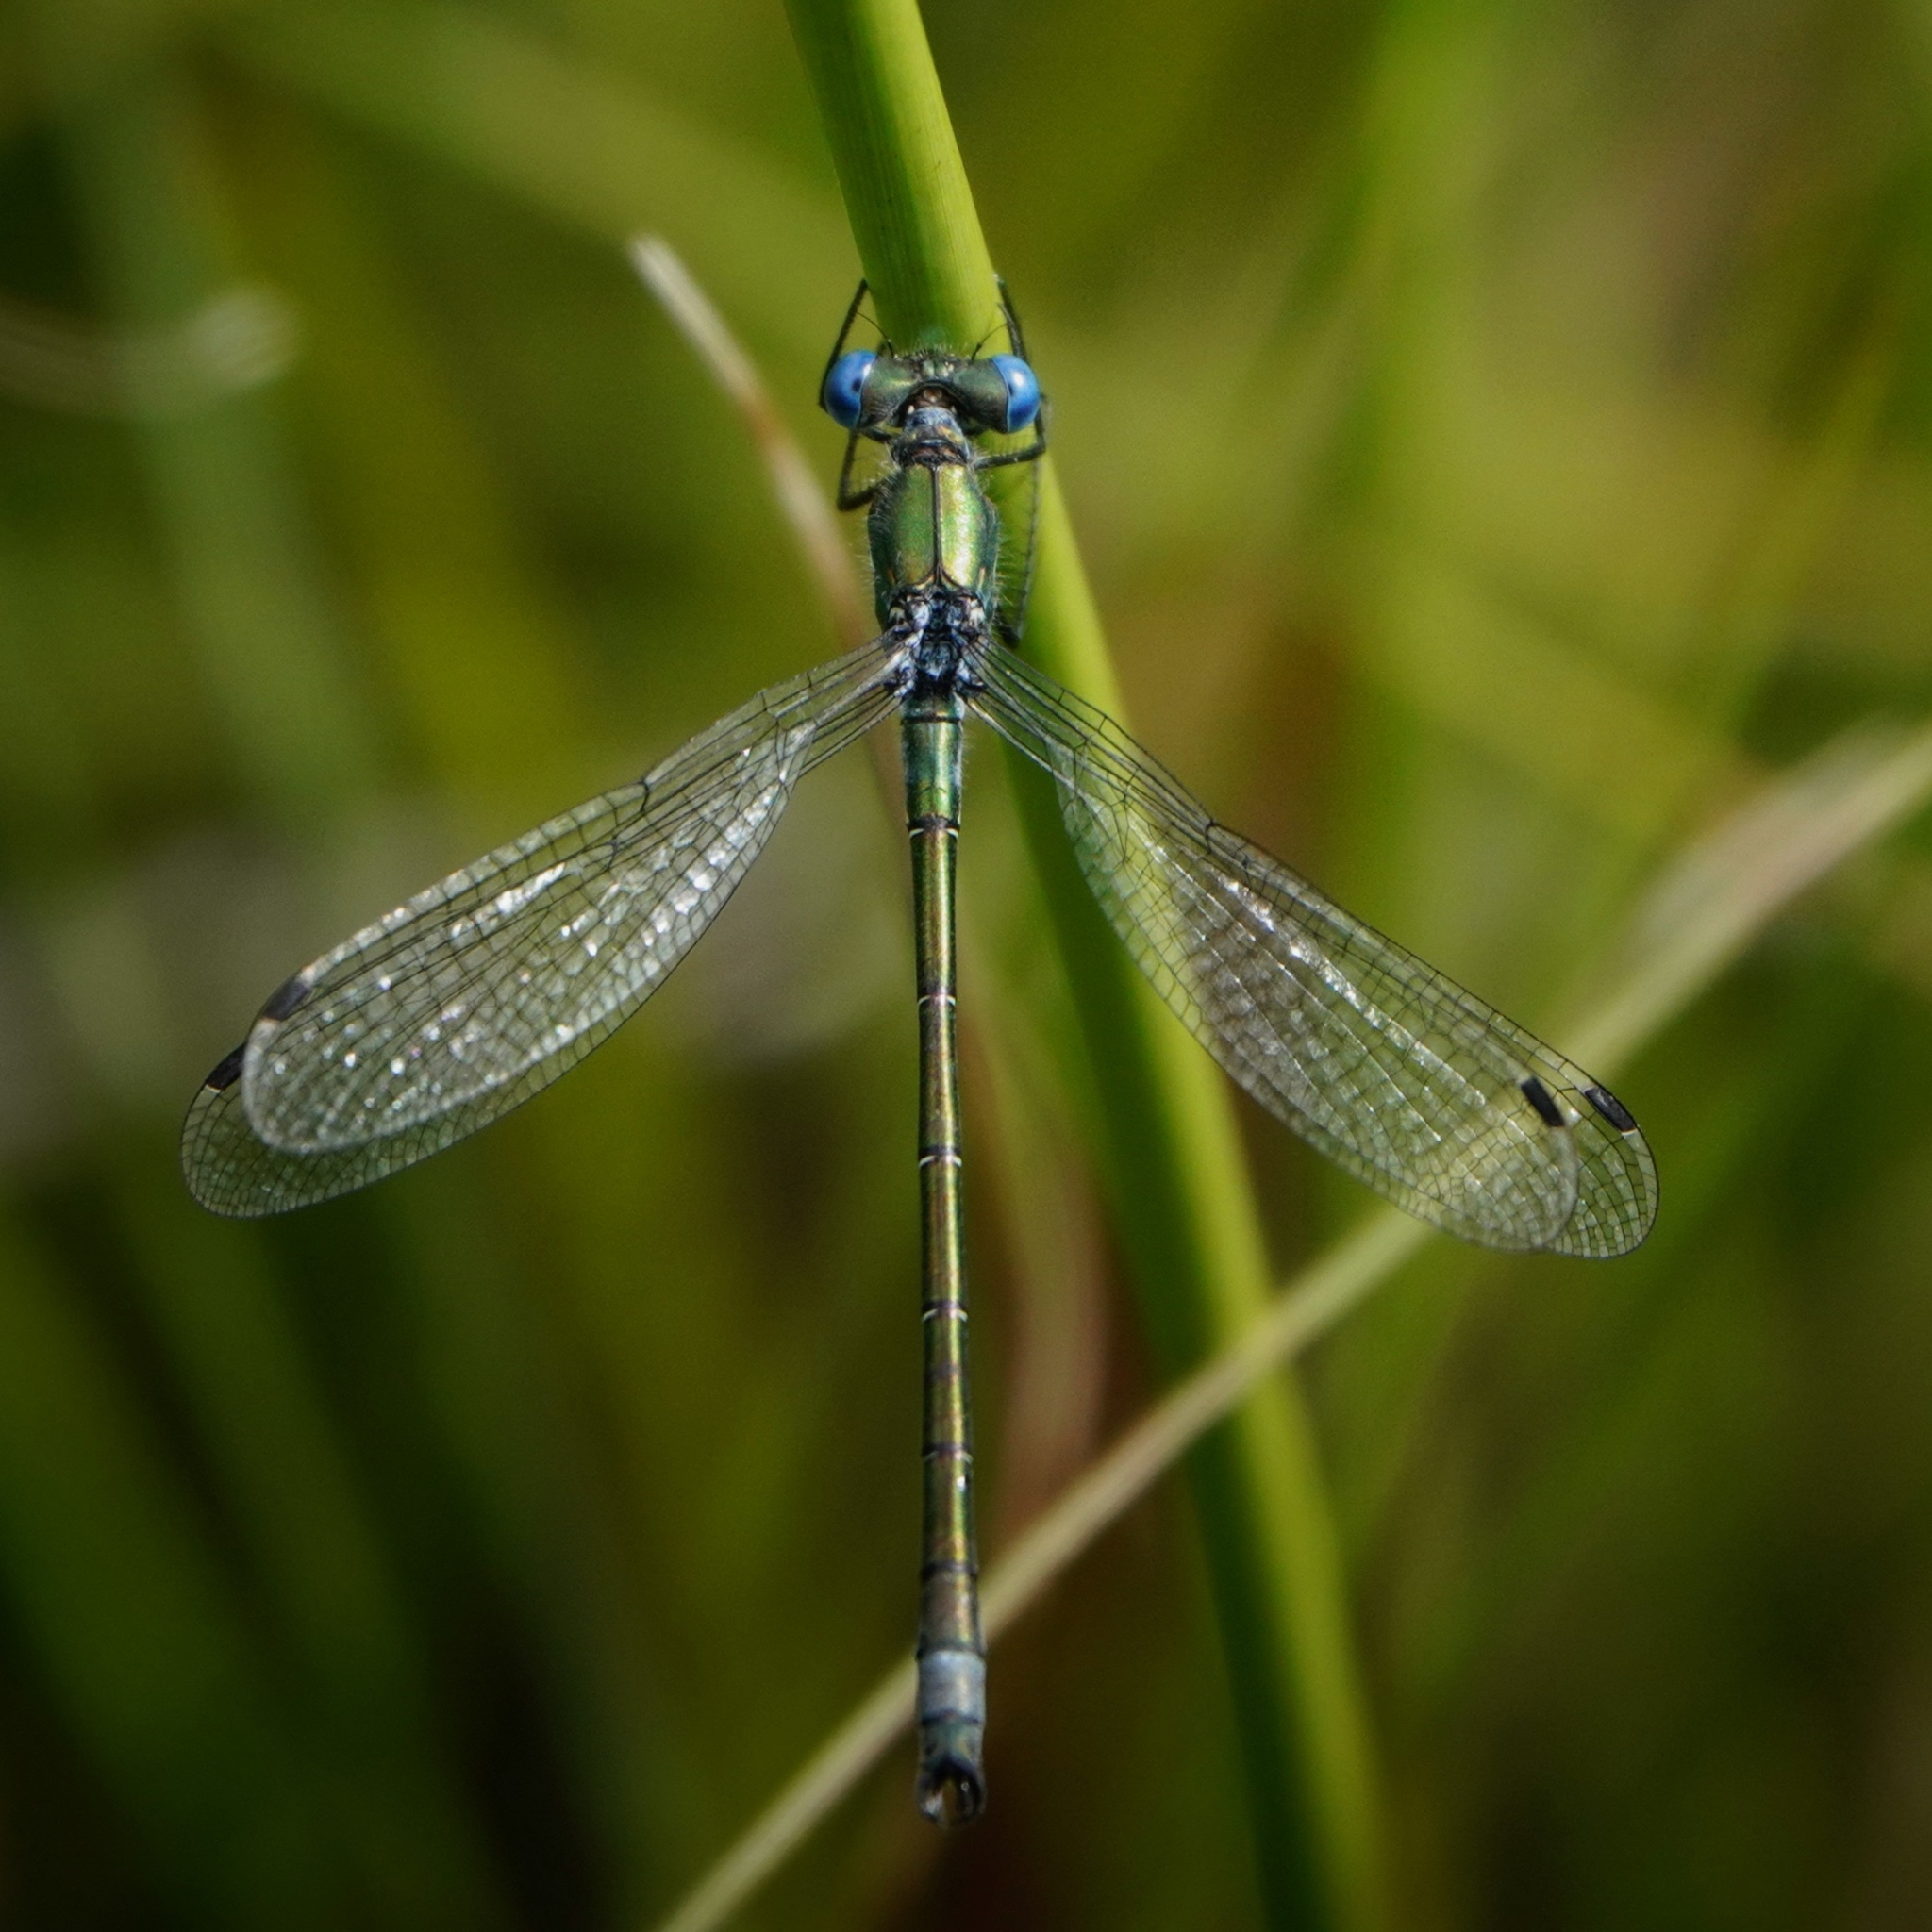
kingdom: Animalia
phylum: Arthropoda
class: Insecta
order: Odonata
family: Lestidae
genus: Lestes
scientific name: Lestes dryas
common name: Scarce emerald damselfly
